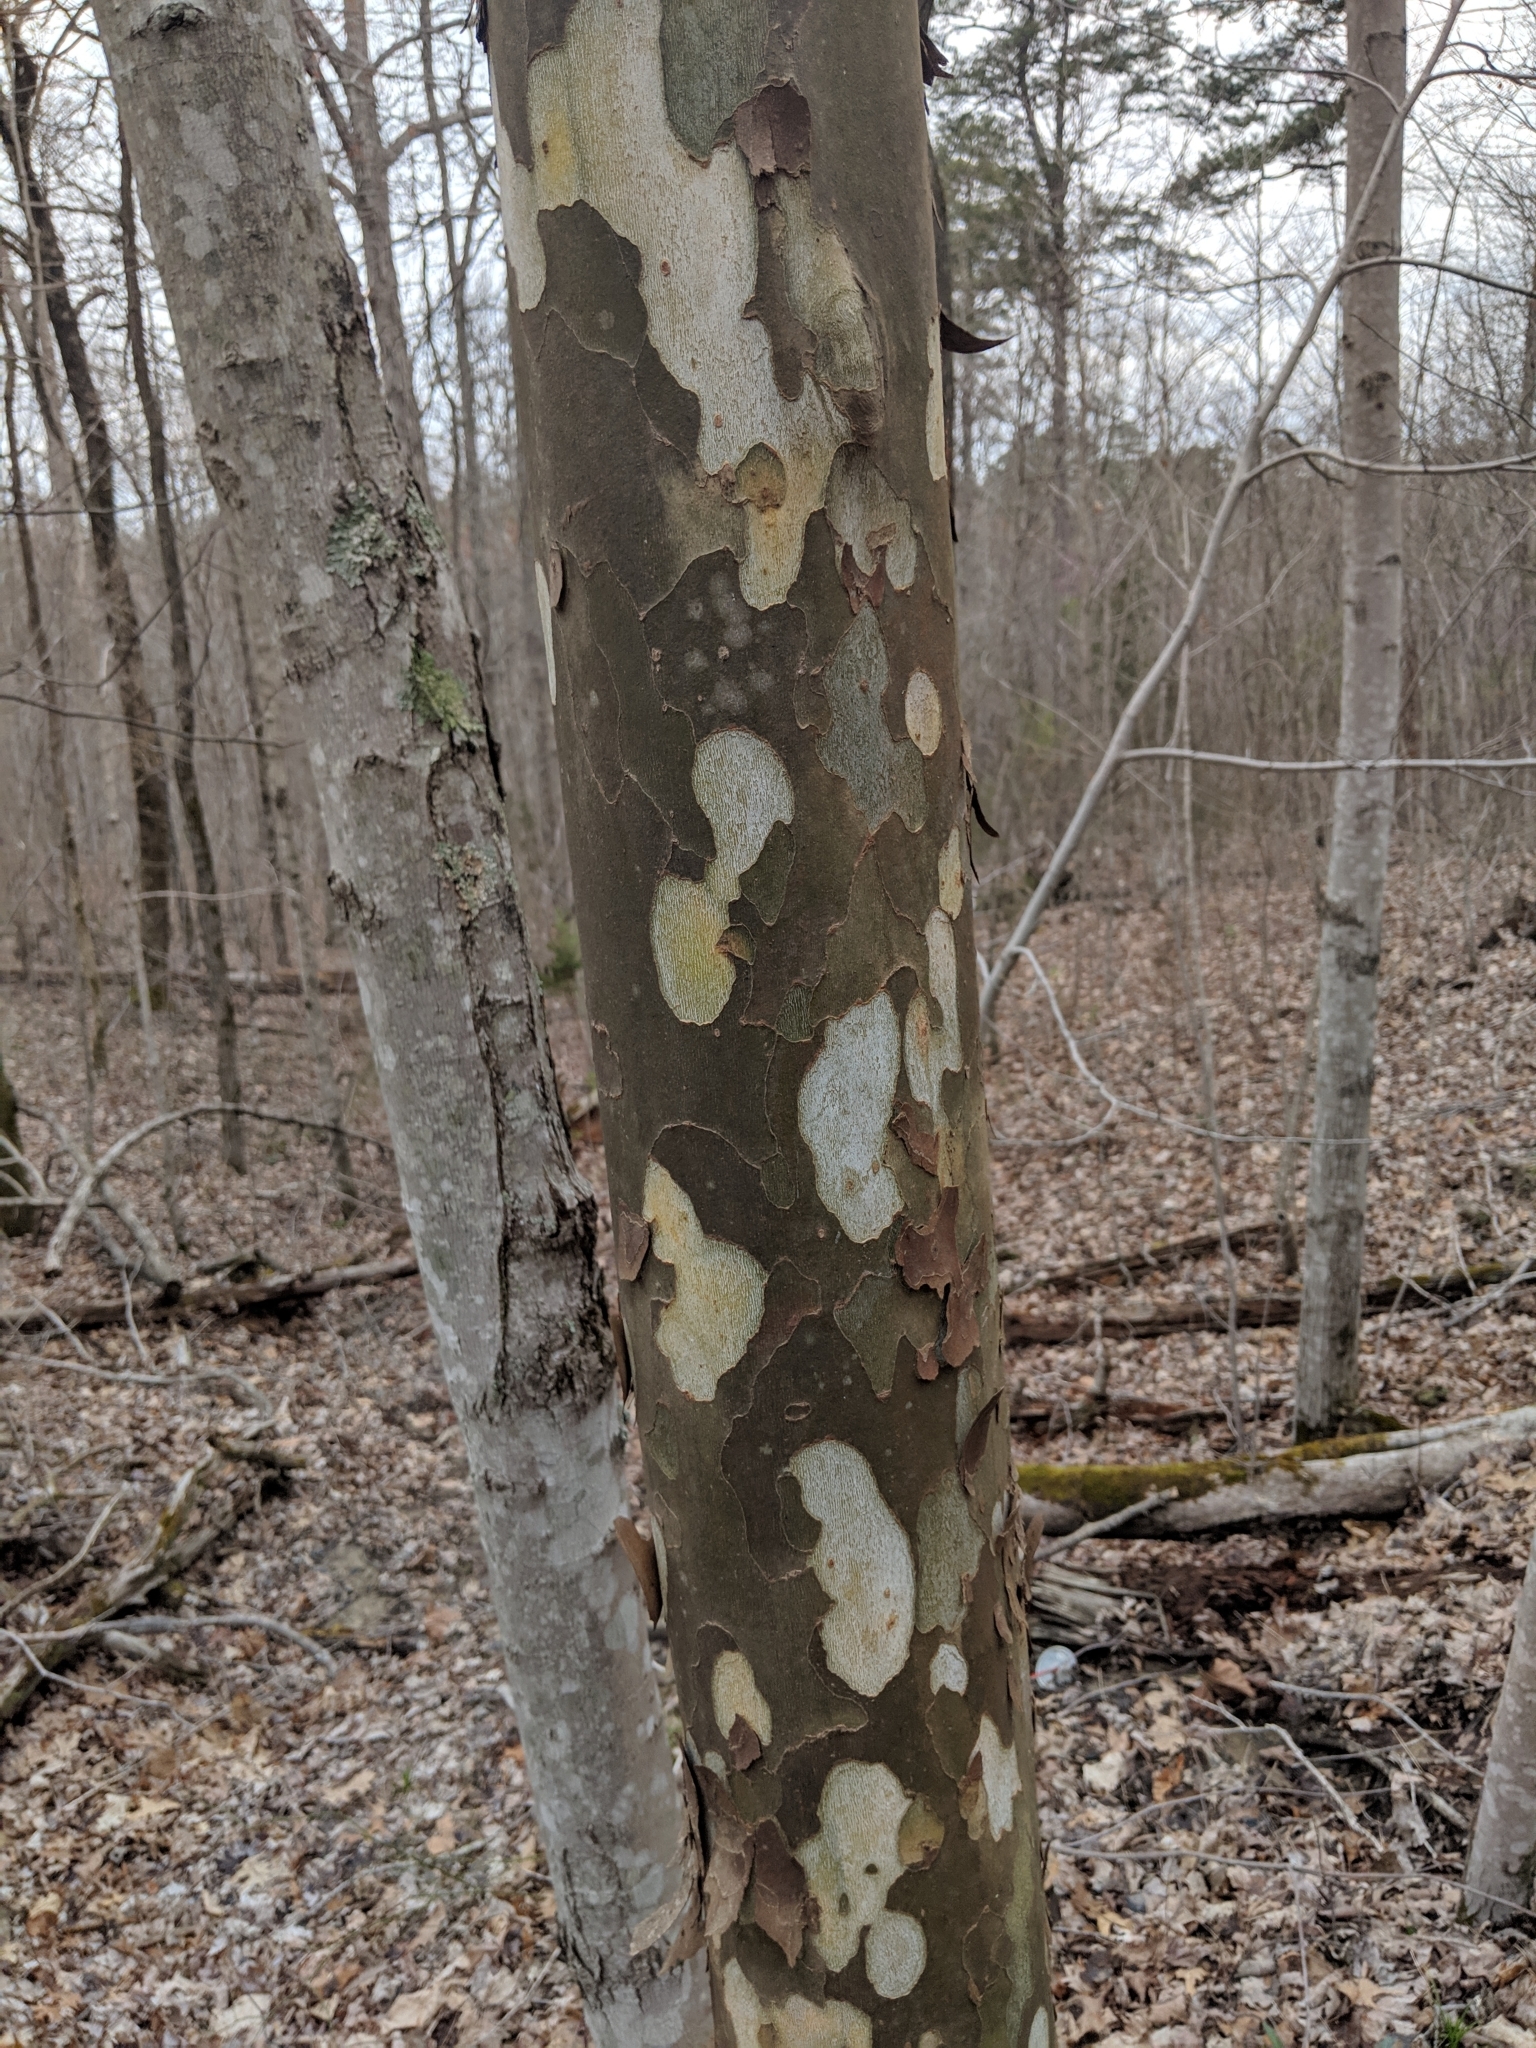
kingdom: Plantae
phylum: Tracheophyta
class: Magnoliopsida
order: Proteales
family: Platanaceae
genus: Platanus
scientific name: Platanus occidentalis
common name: American sycamore
